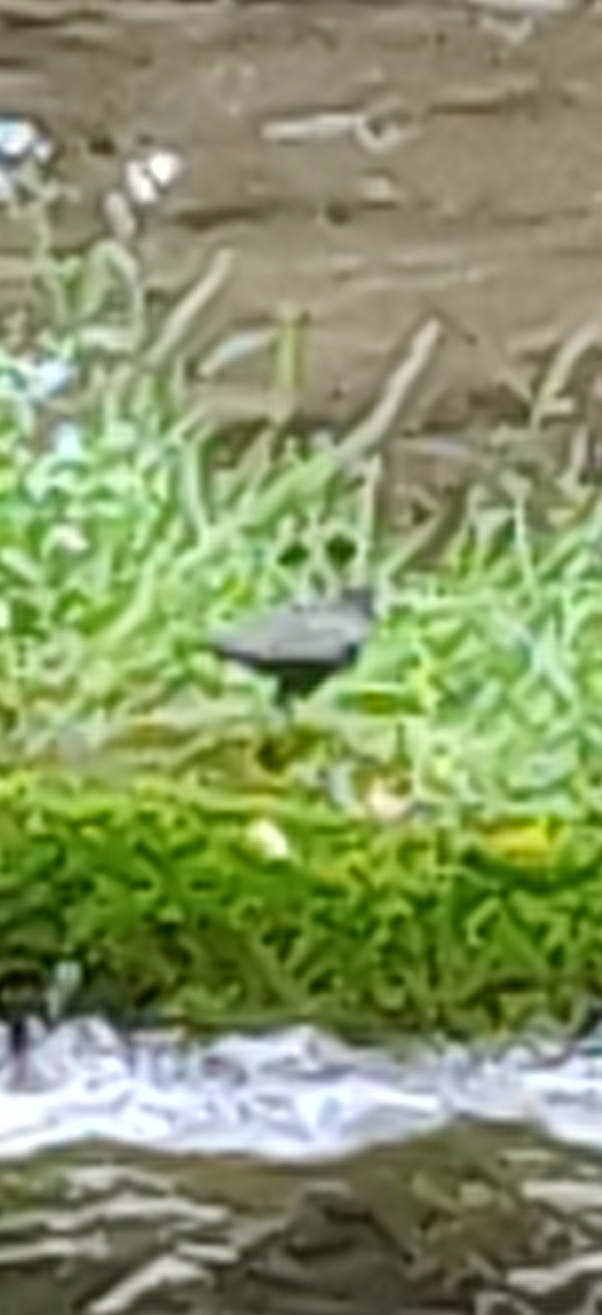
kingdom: Animalia
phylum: Chordata
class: Aves
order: Passeriformes
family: Cinclidae
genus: Cinclus
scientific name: Cinclus mexicanus
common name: American dipper
